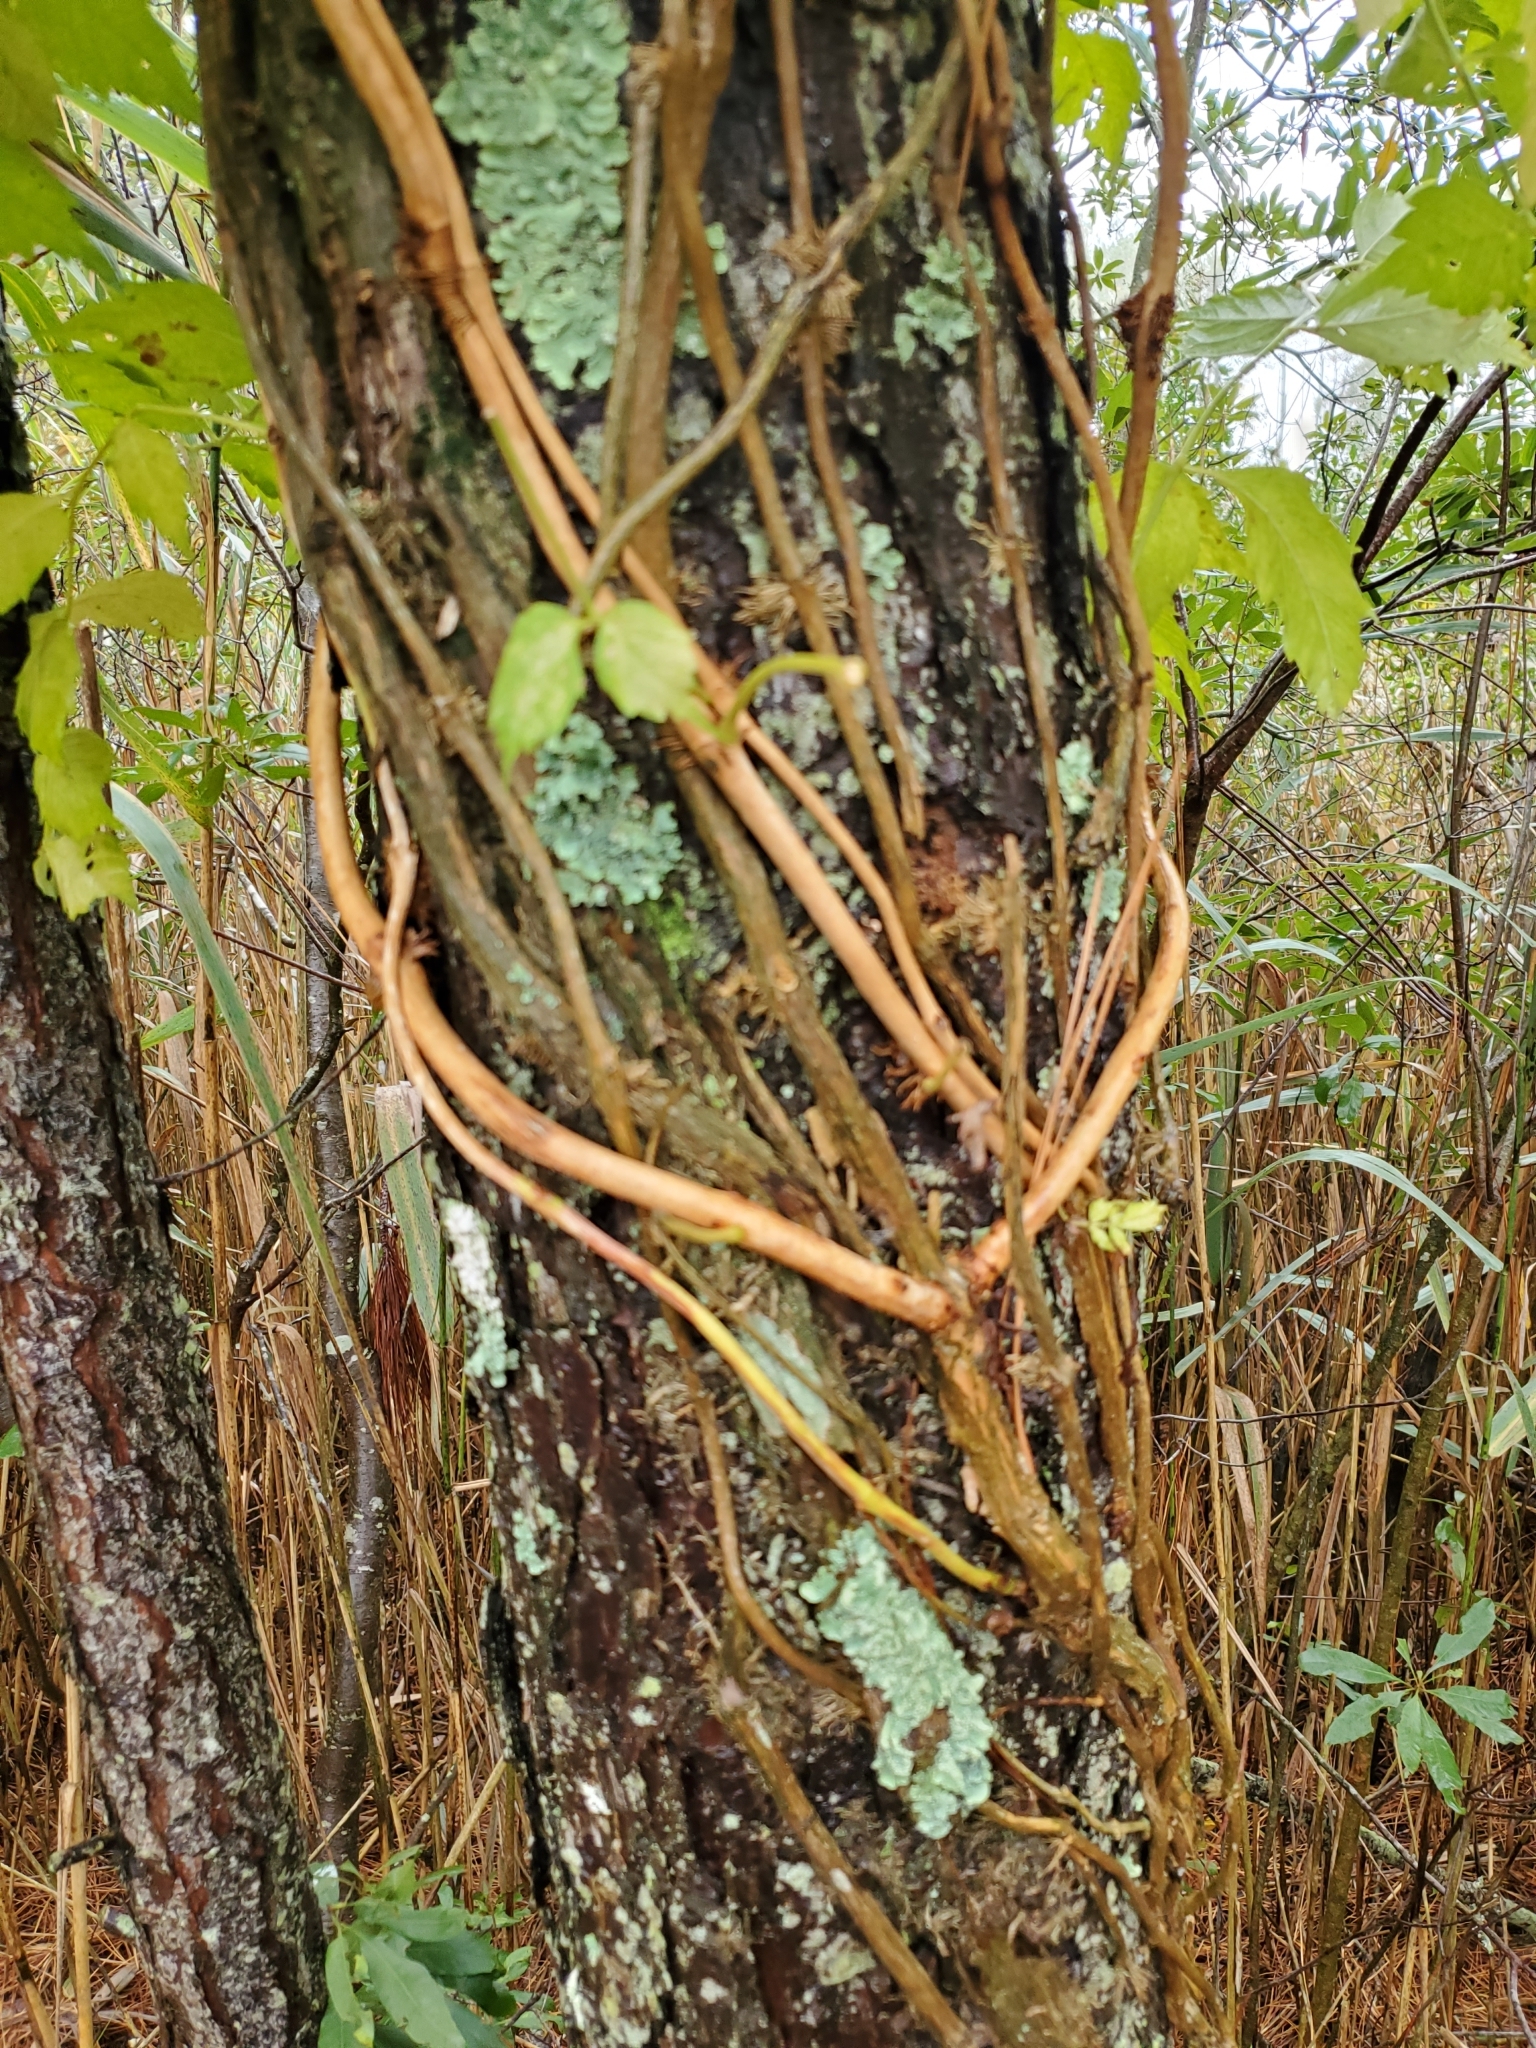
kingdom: Plantae
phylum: Tracheophyta
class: Magnoliopsida
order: Lamiales
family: Bignoniaceae
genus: Campsis
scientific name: Campsis radicans
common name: Trumpet-creeper
